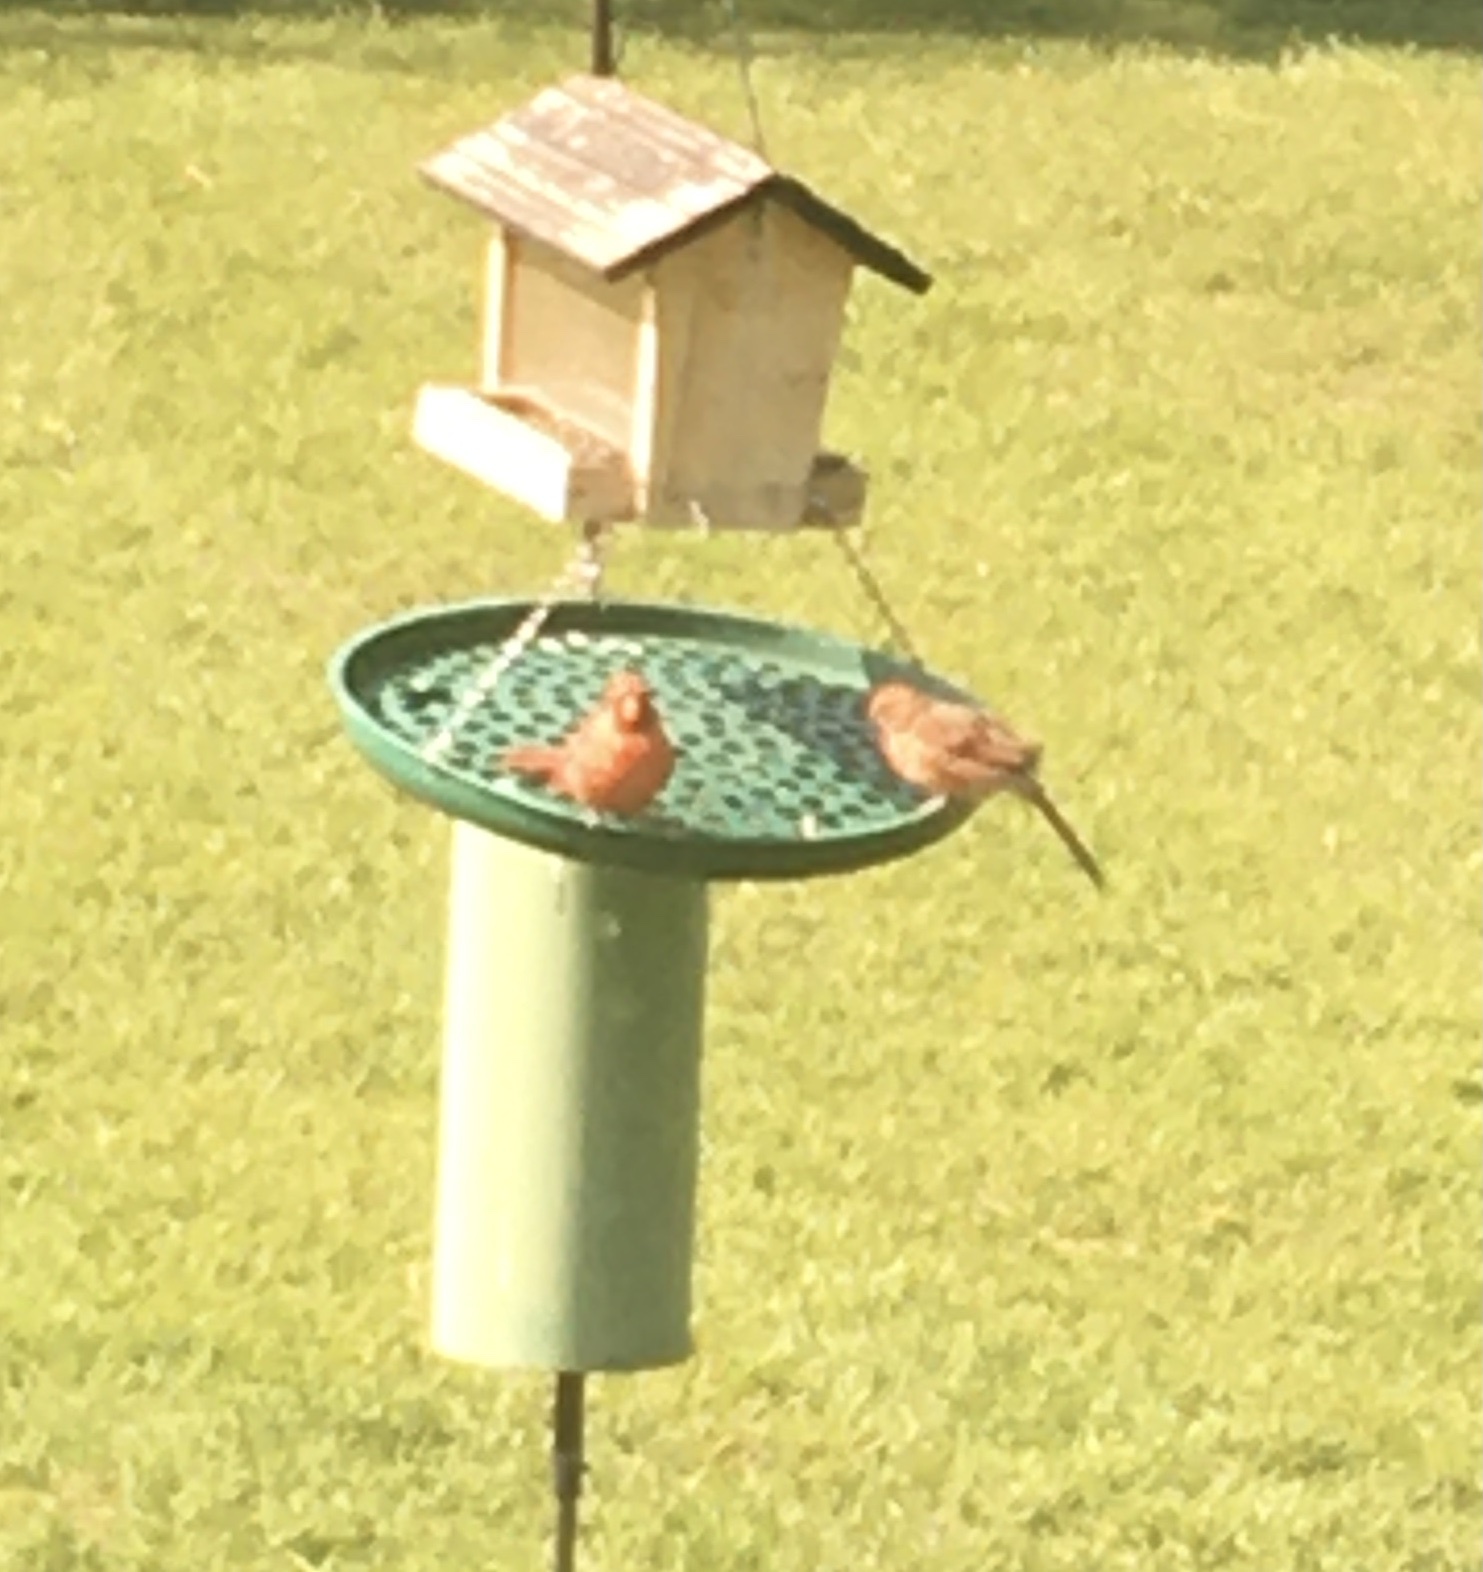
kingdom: Animalia
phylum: Chordata
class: Aves
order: Passeriformes
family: Cardinalidae
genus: Cardinalis
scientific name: Cardinalis cardinalis
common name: Northern cardinal
